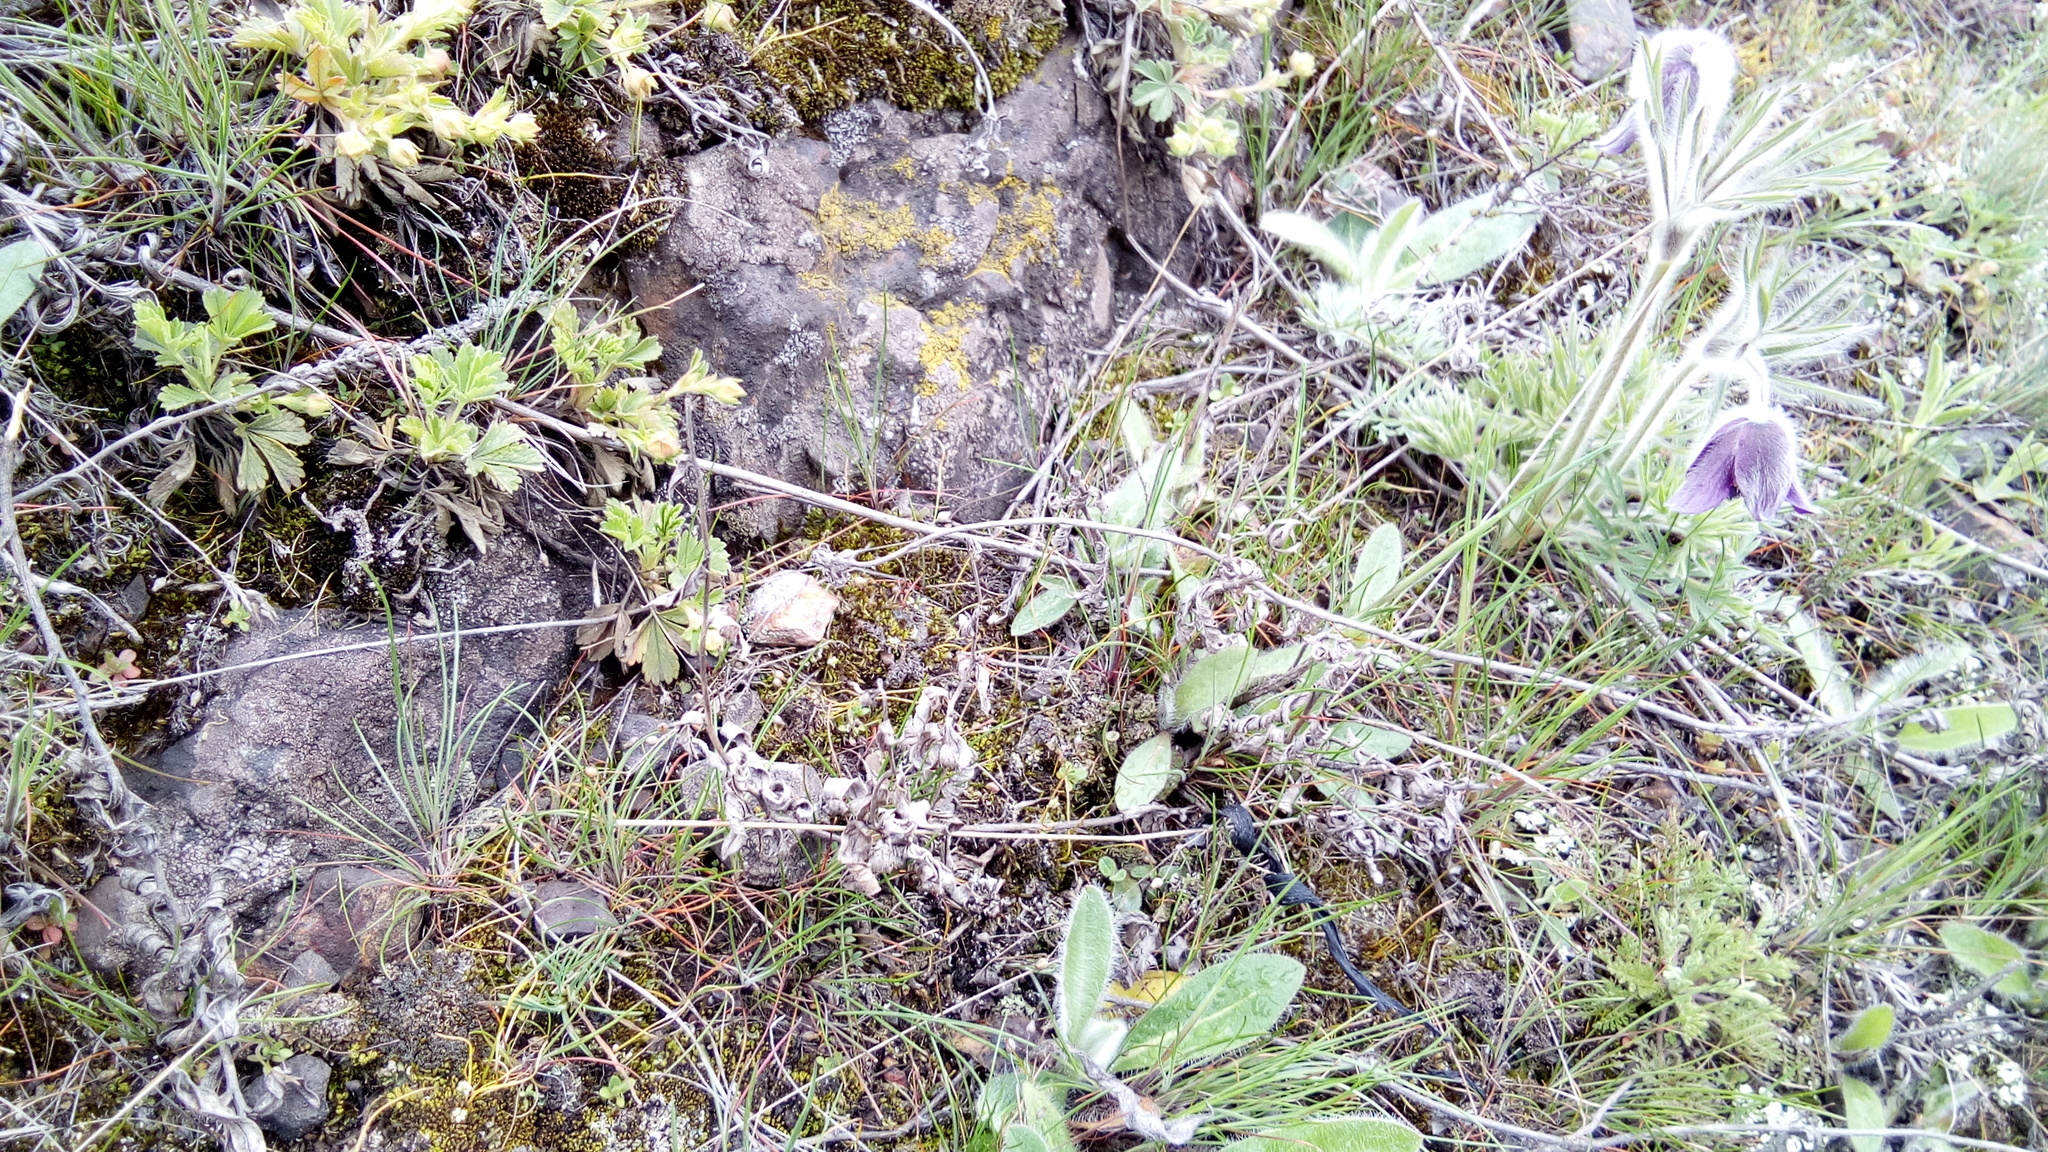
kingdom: Plantae
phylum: Tracheophyta
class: Magnoliopsida
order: Ranunculales
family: Ranunculaceae
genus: Pulsatilla
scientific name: Pulsatilla pratensis
